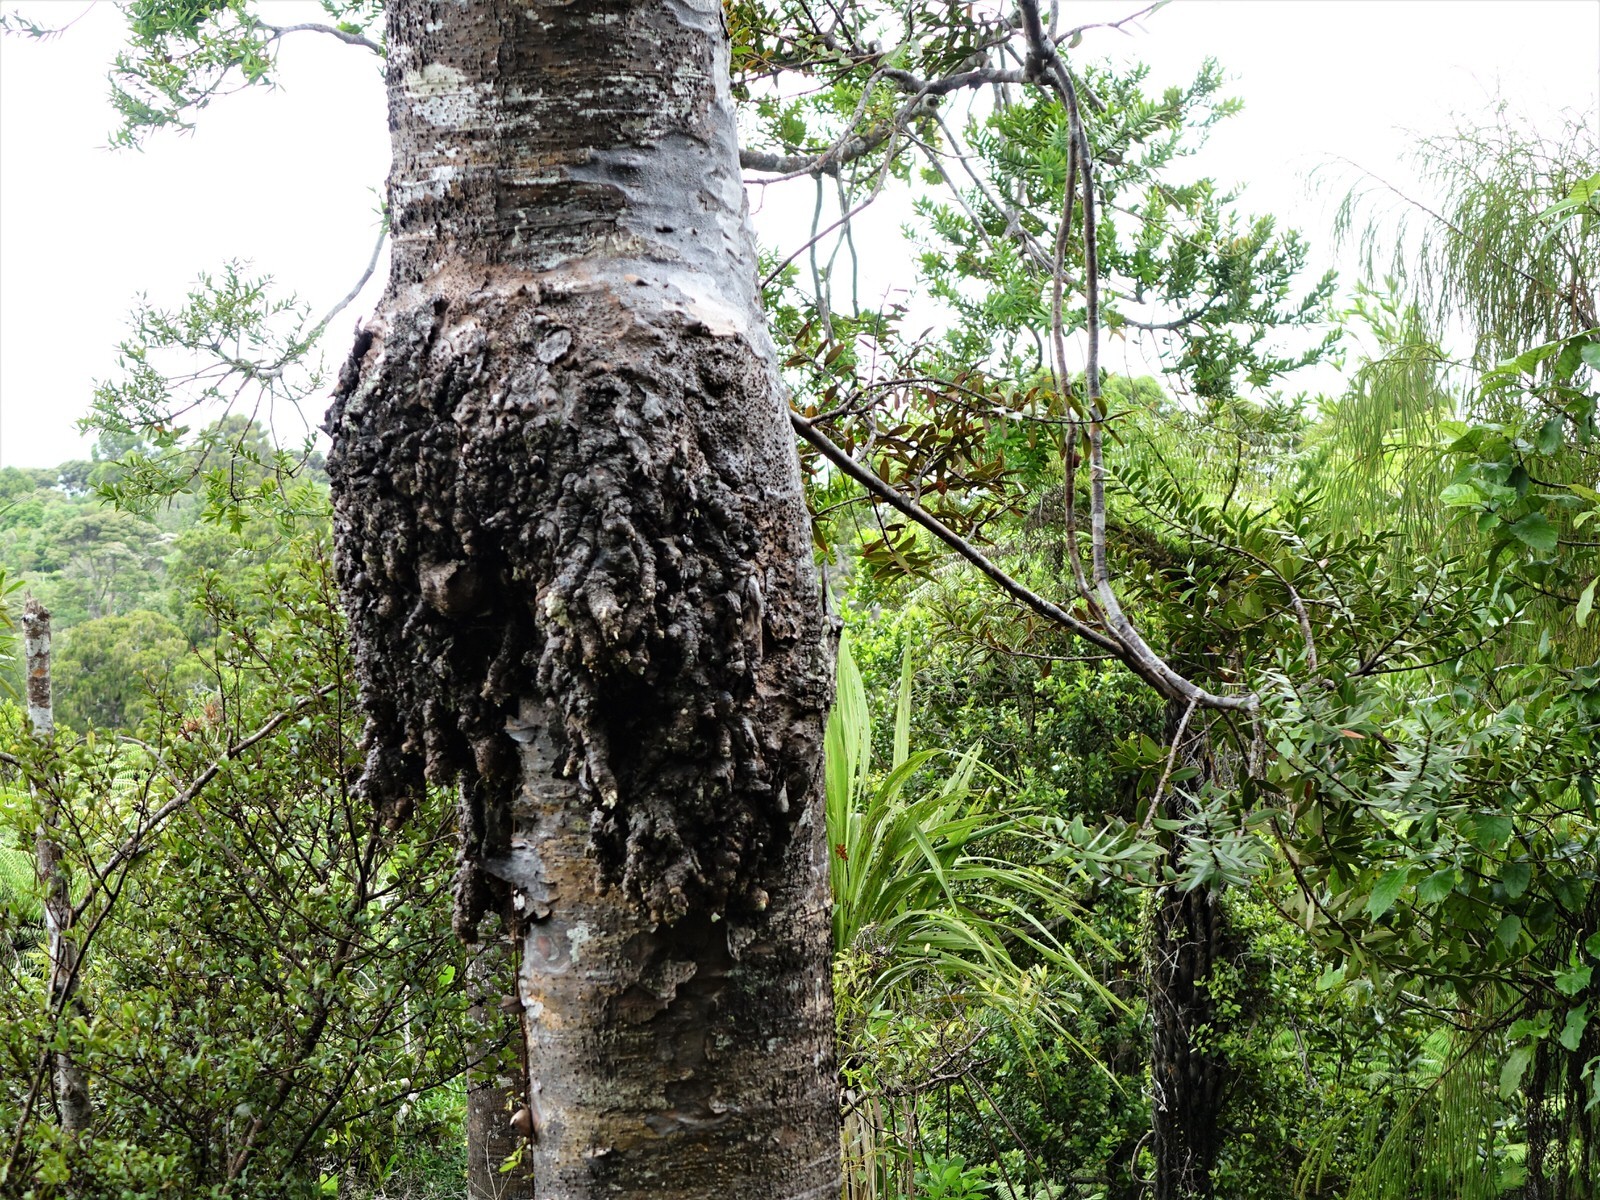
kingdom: Plantae
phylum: Tracheophyta
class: Pinopsida
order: Pinales
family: Araucariaceae
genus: Agathis
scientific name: Agathis australis
